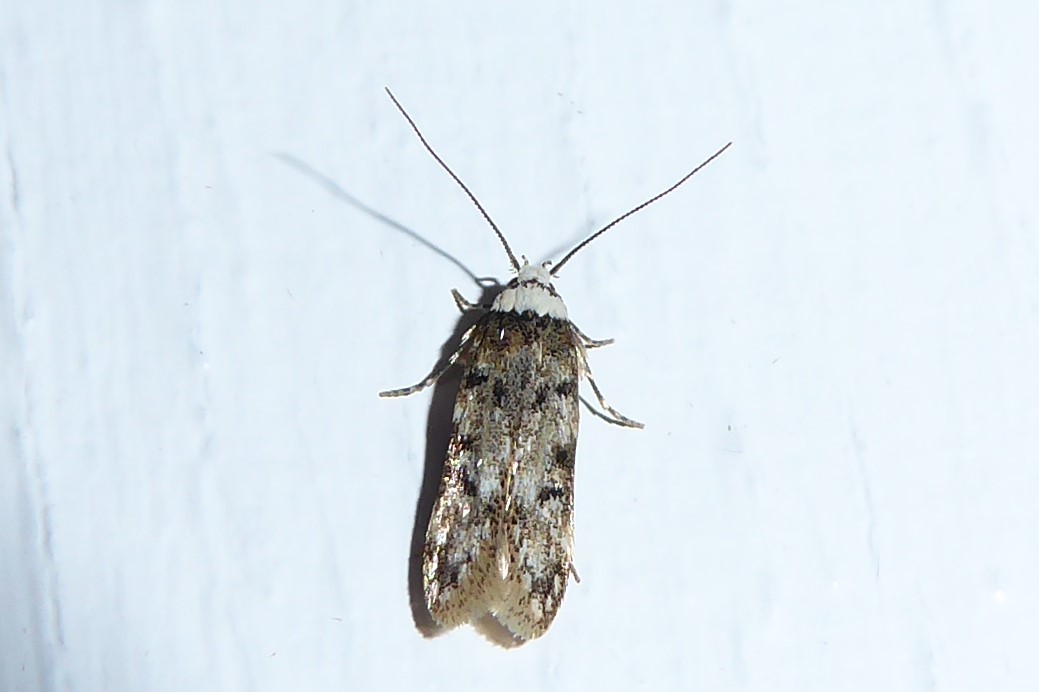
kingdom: Animalia
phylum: Arthropoda
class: Insecta
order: Lepidoptera
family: Oecophoridae
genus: Endrosis
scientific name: Endrosis sarcitrella
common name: White-shouldered house moth
